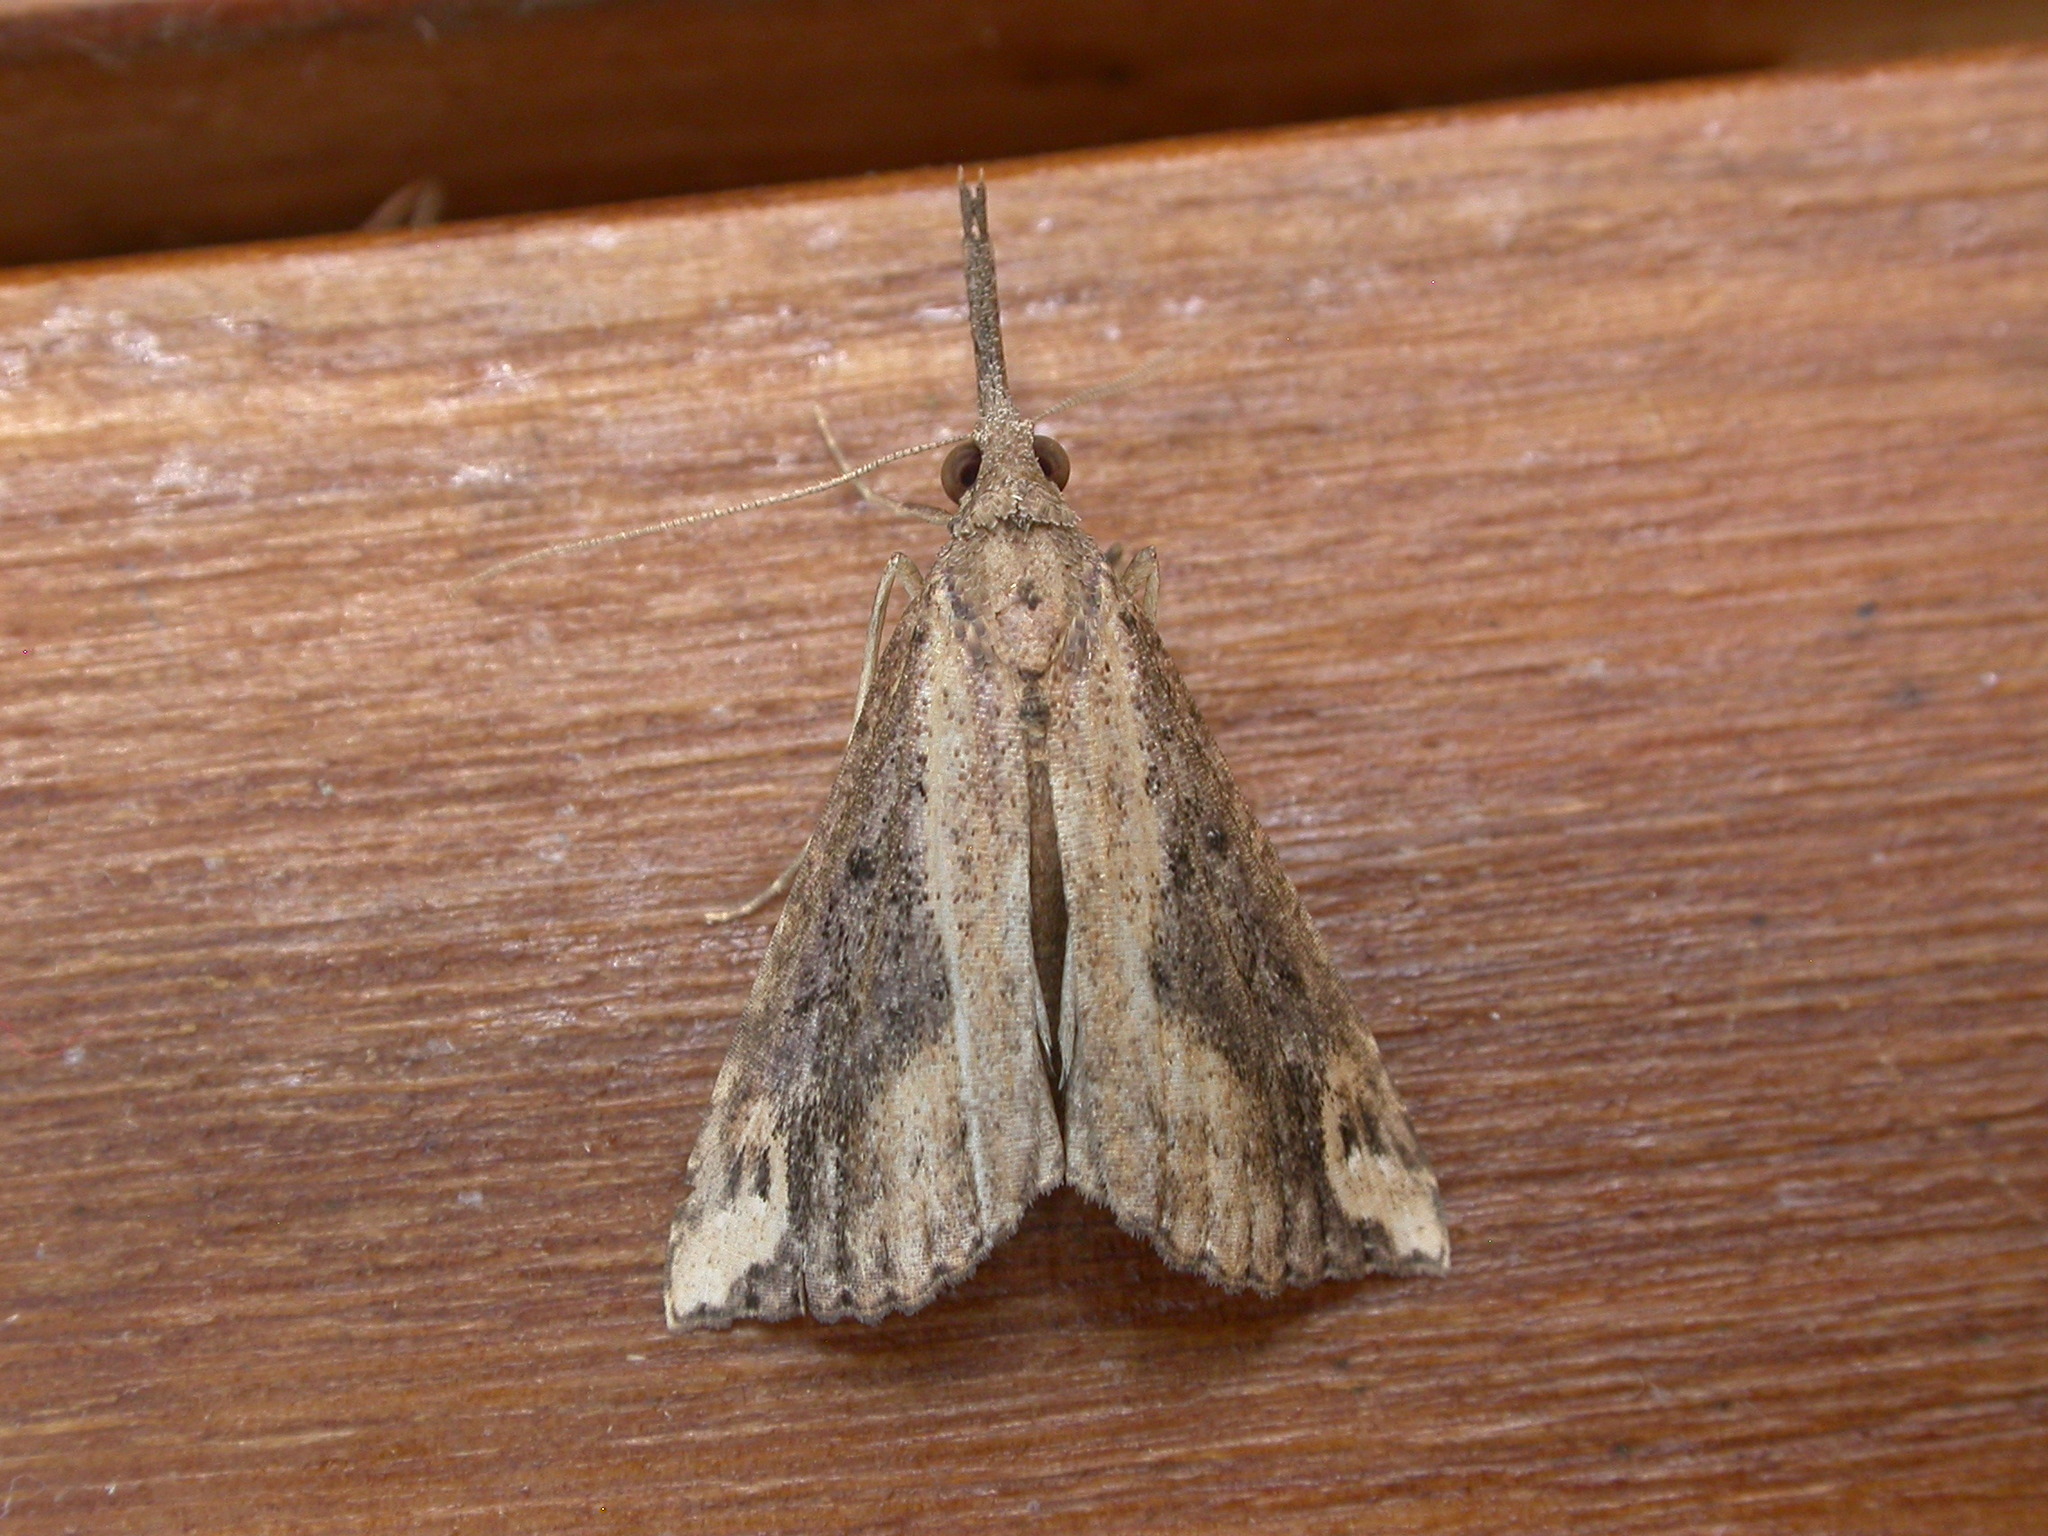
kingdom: Animalia
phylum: Arthropoda
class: Insecta
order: Lepidoptera
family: Erebidae
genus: Hypena
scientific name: Hypena labatalis
